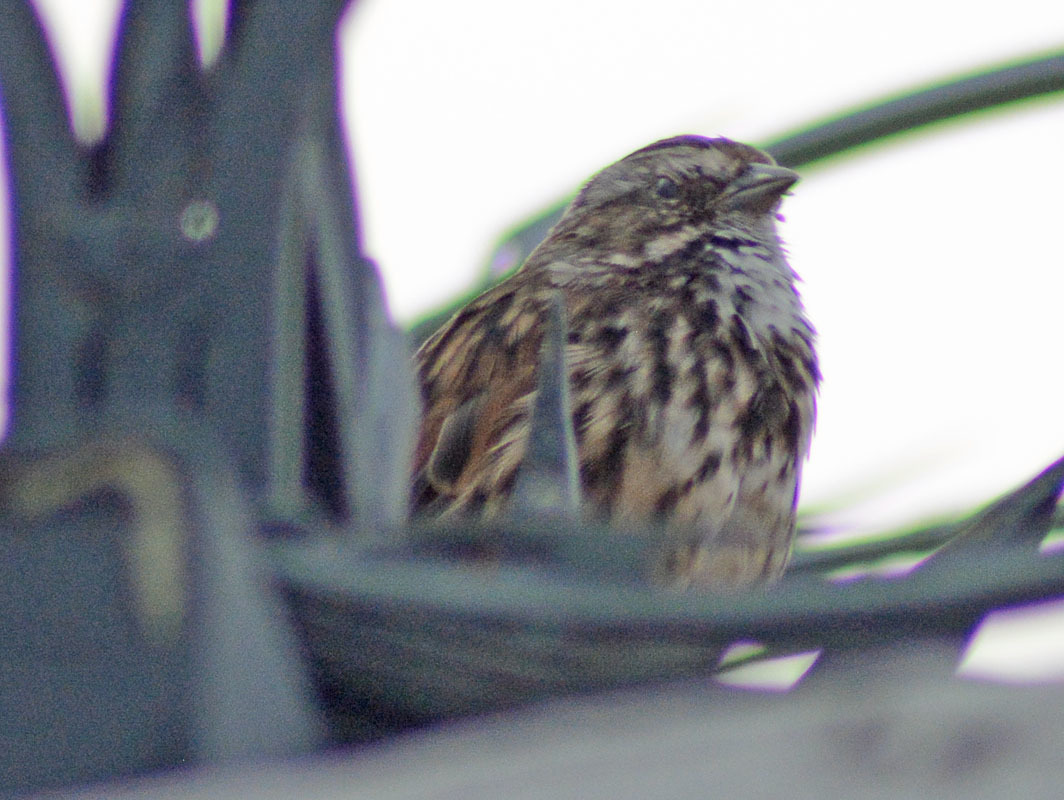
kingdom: Animalia
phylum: Chordata
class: Aves
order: Passeriformes
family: Passerellidae
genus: Melospiza
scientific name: Melospiza melodia
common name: Song sparrow
